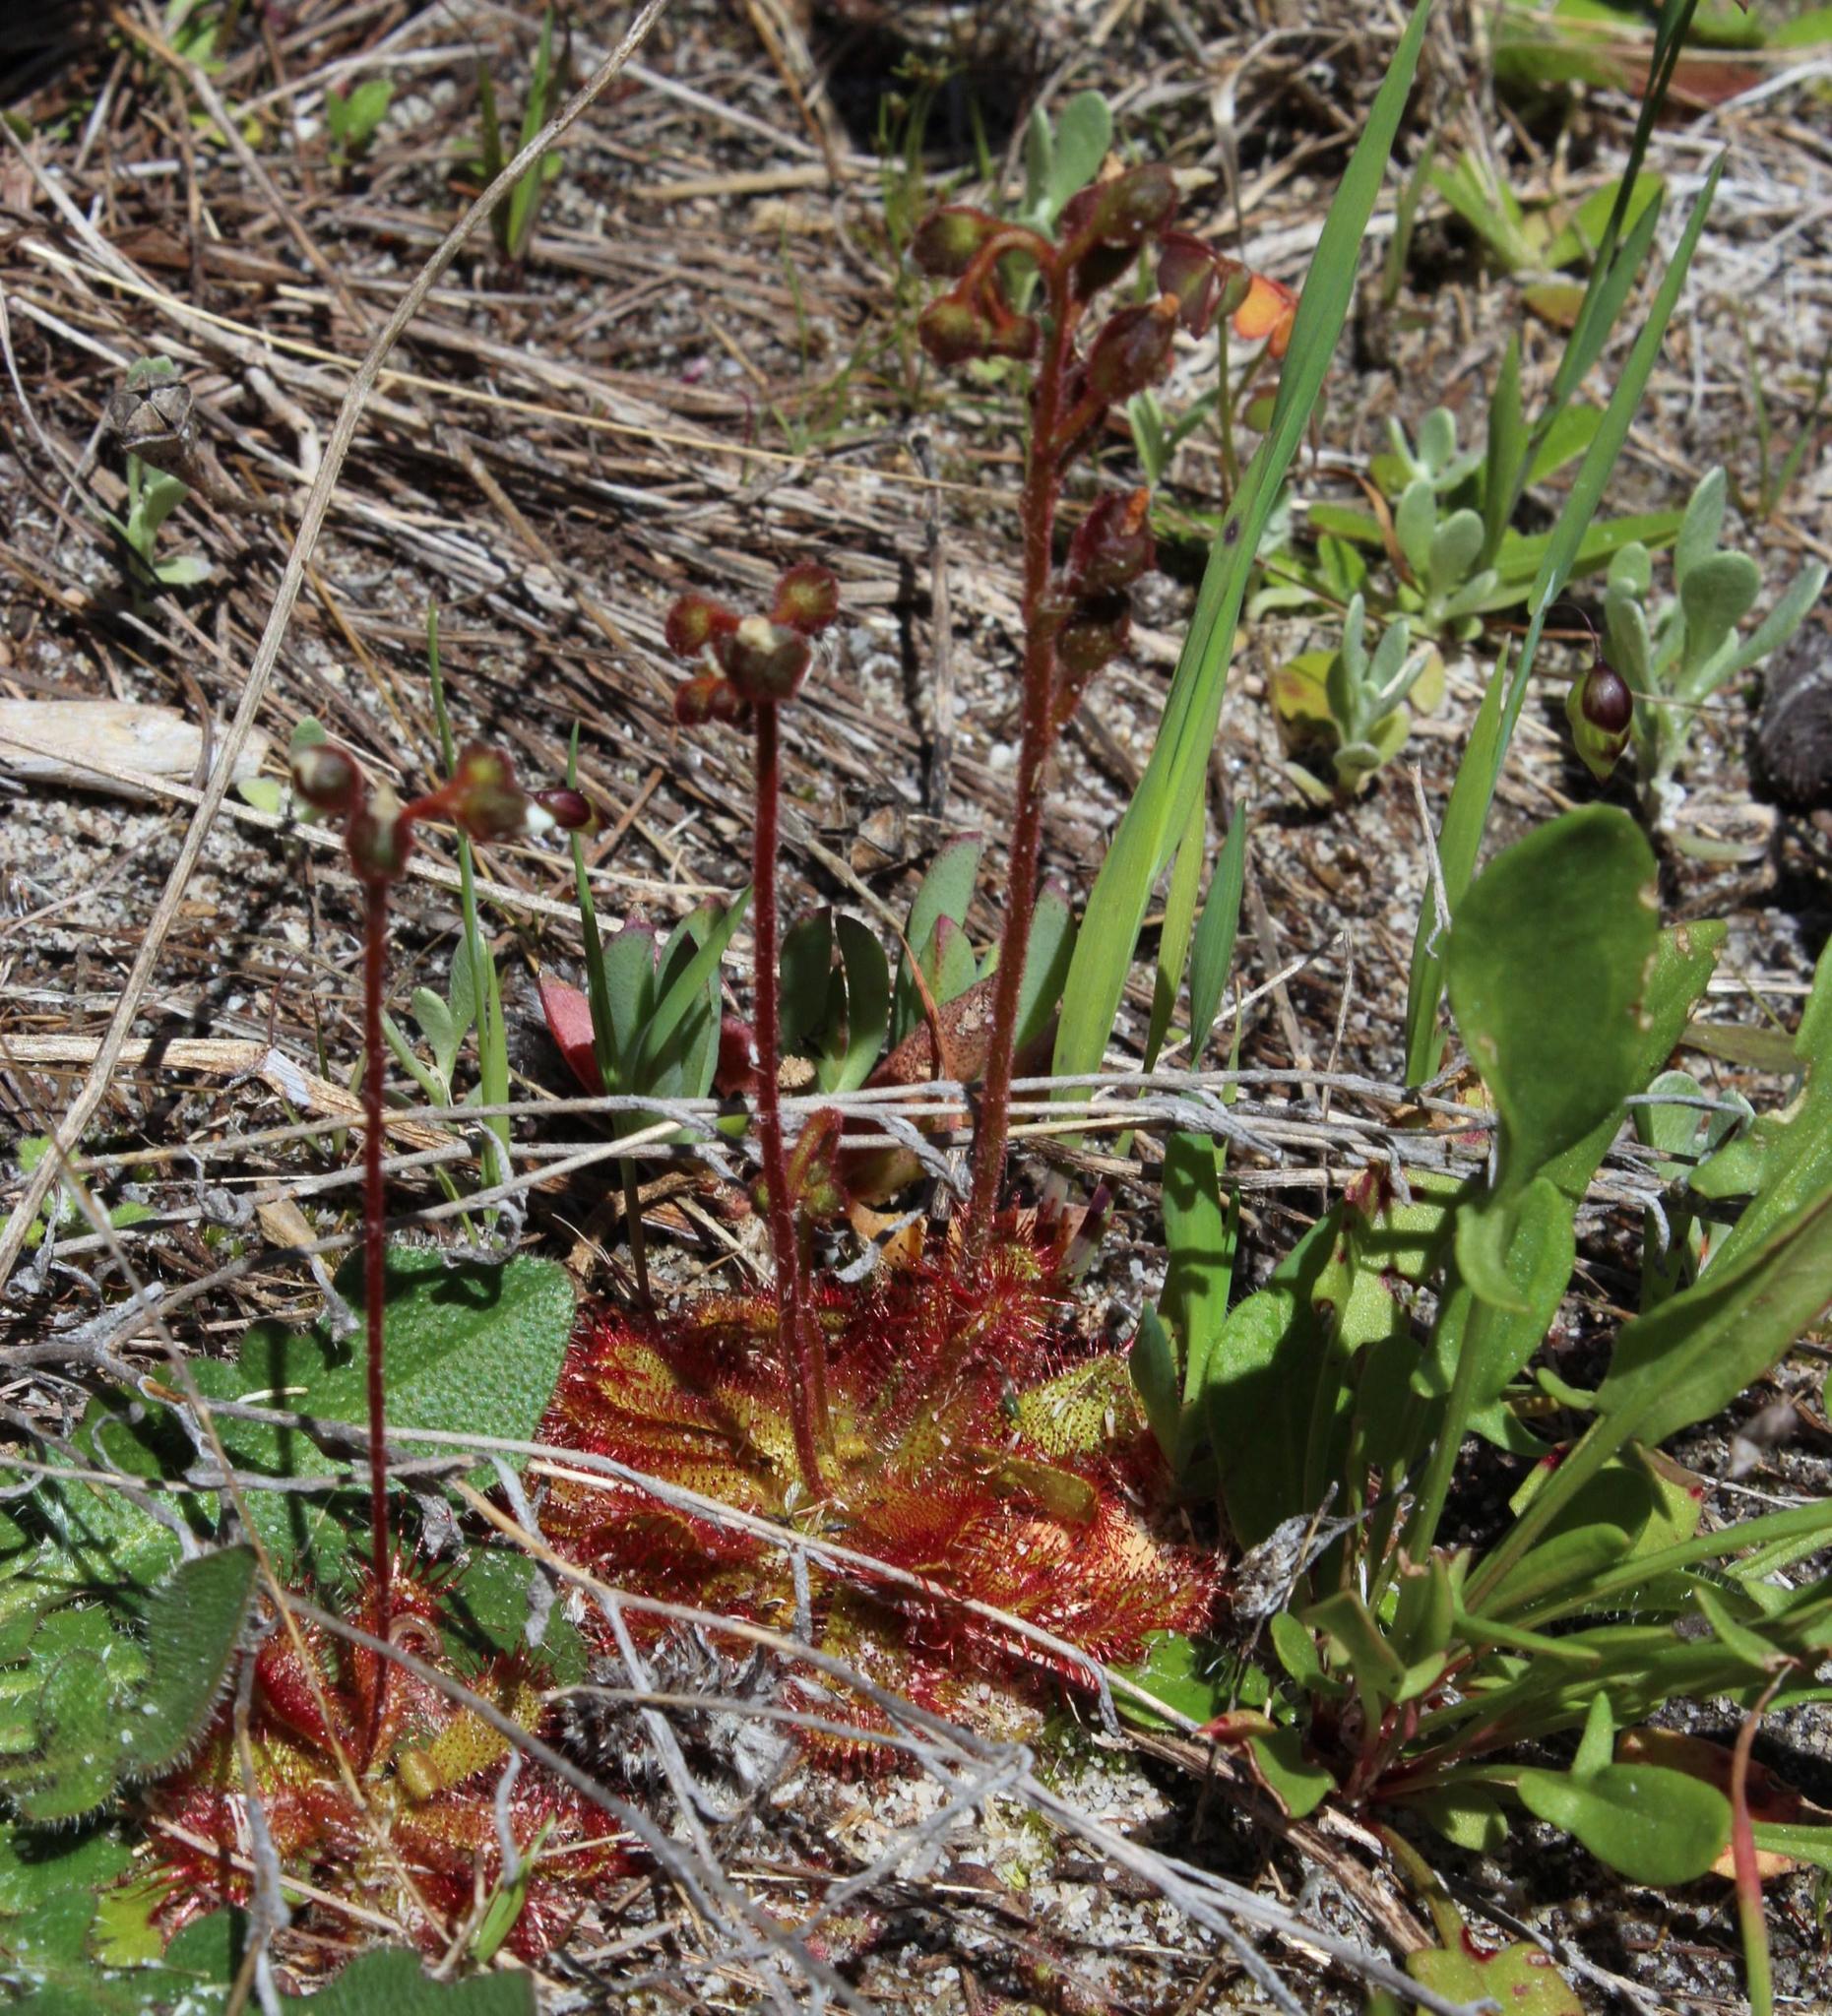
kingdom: Plantae
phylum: Tracheophyta
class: Magnoliopsida
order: Caryophyllales
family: Droseraceae
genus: Drosera
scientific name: Drosera trinervia
